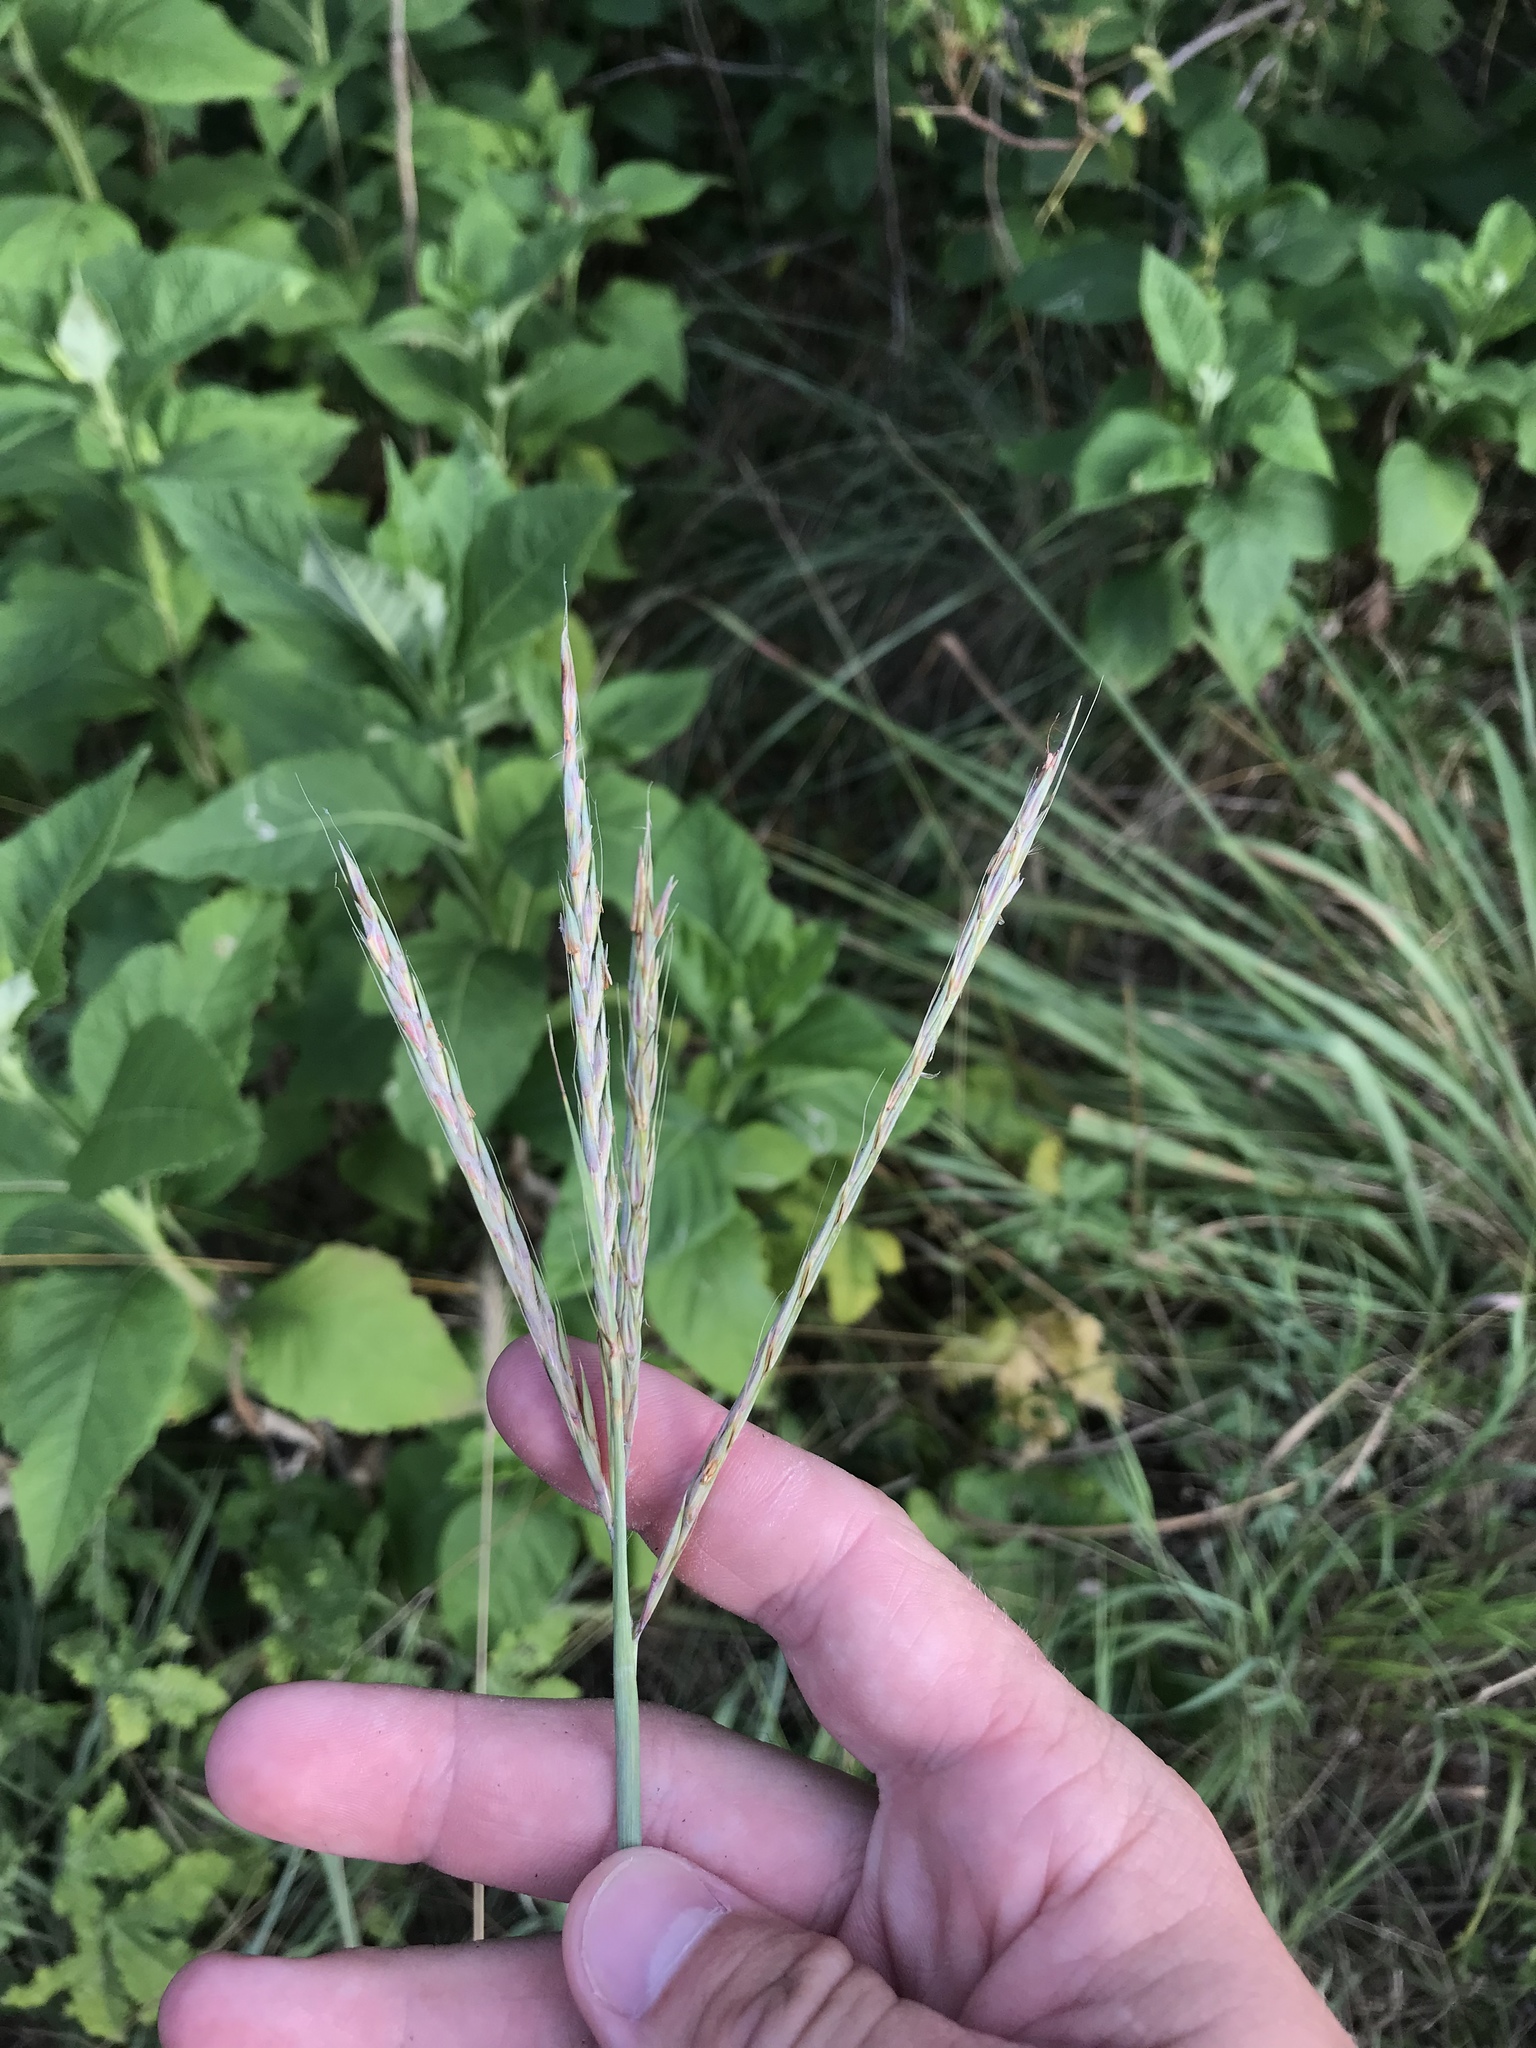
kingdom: Plantae
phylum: Tracheophyta
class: Liliopsida
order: Poales
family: Poaceae
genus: Andropogon
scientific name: Andropogon gerardi
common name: Big bluestem
